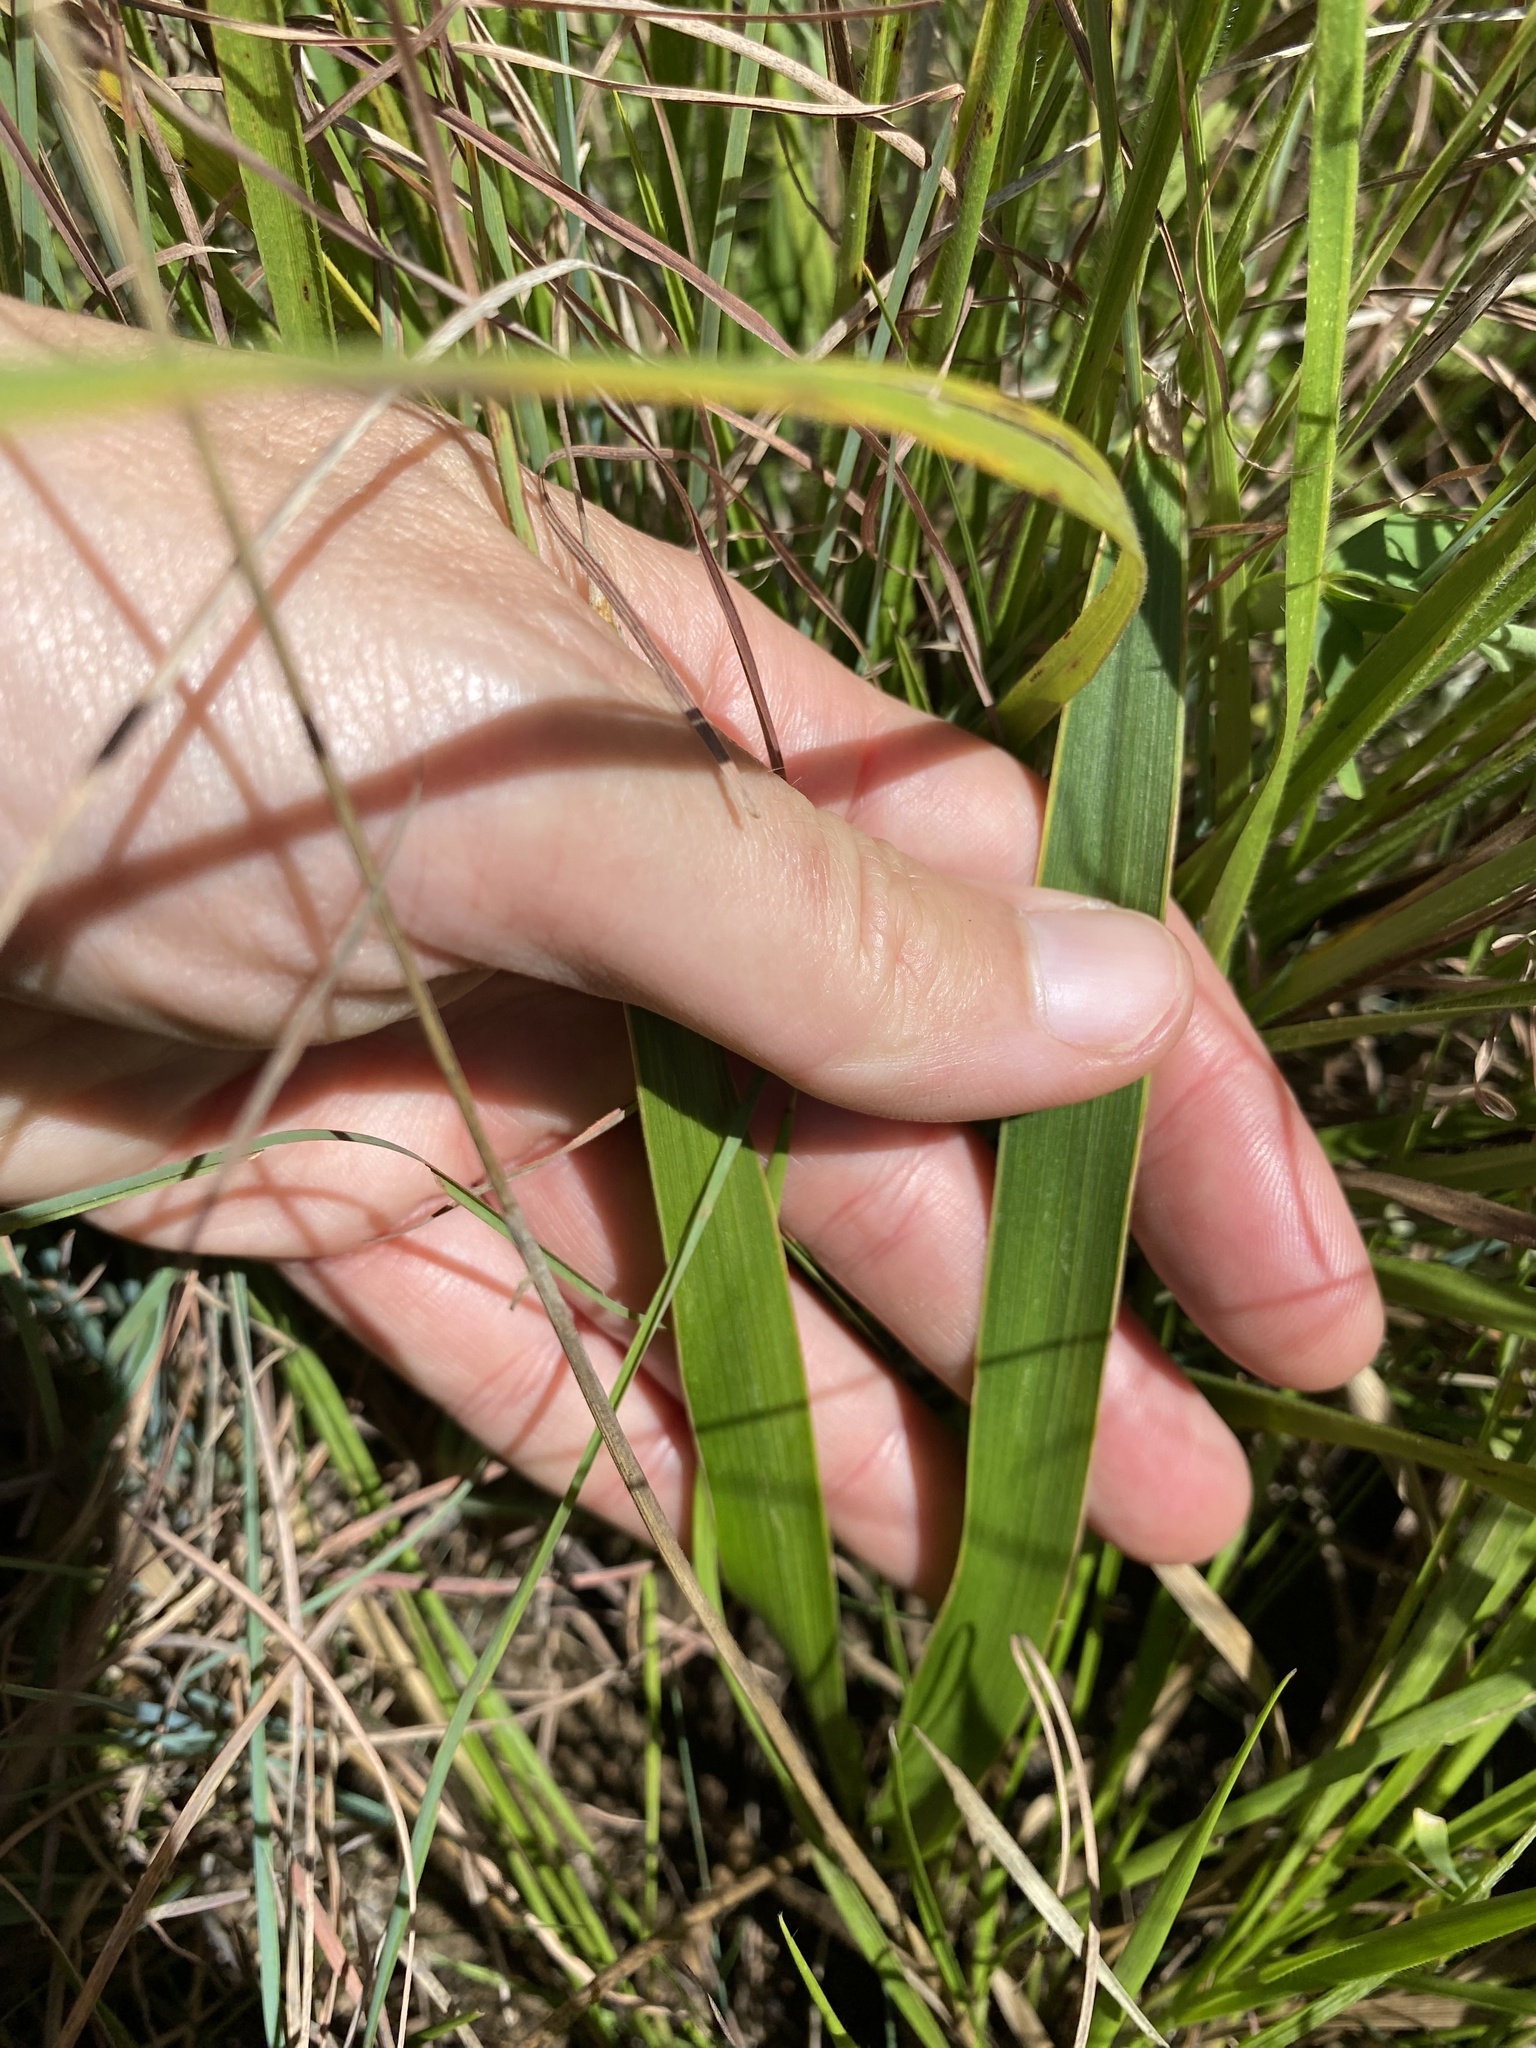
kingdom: Plantae
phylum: Tracheophyta
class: Liliopsida
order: Asparagales
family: Asparagaceae
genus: Schizocarphus
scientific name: Schizocarphus nervosus
